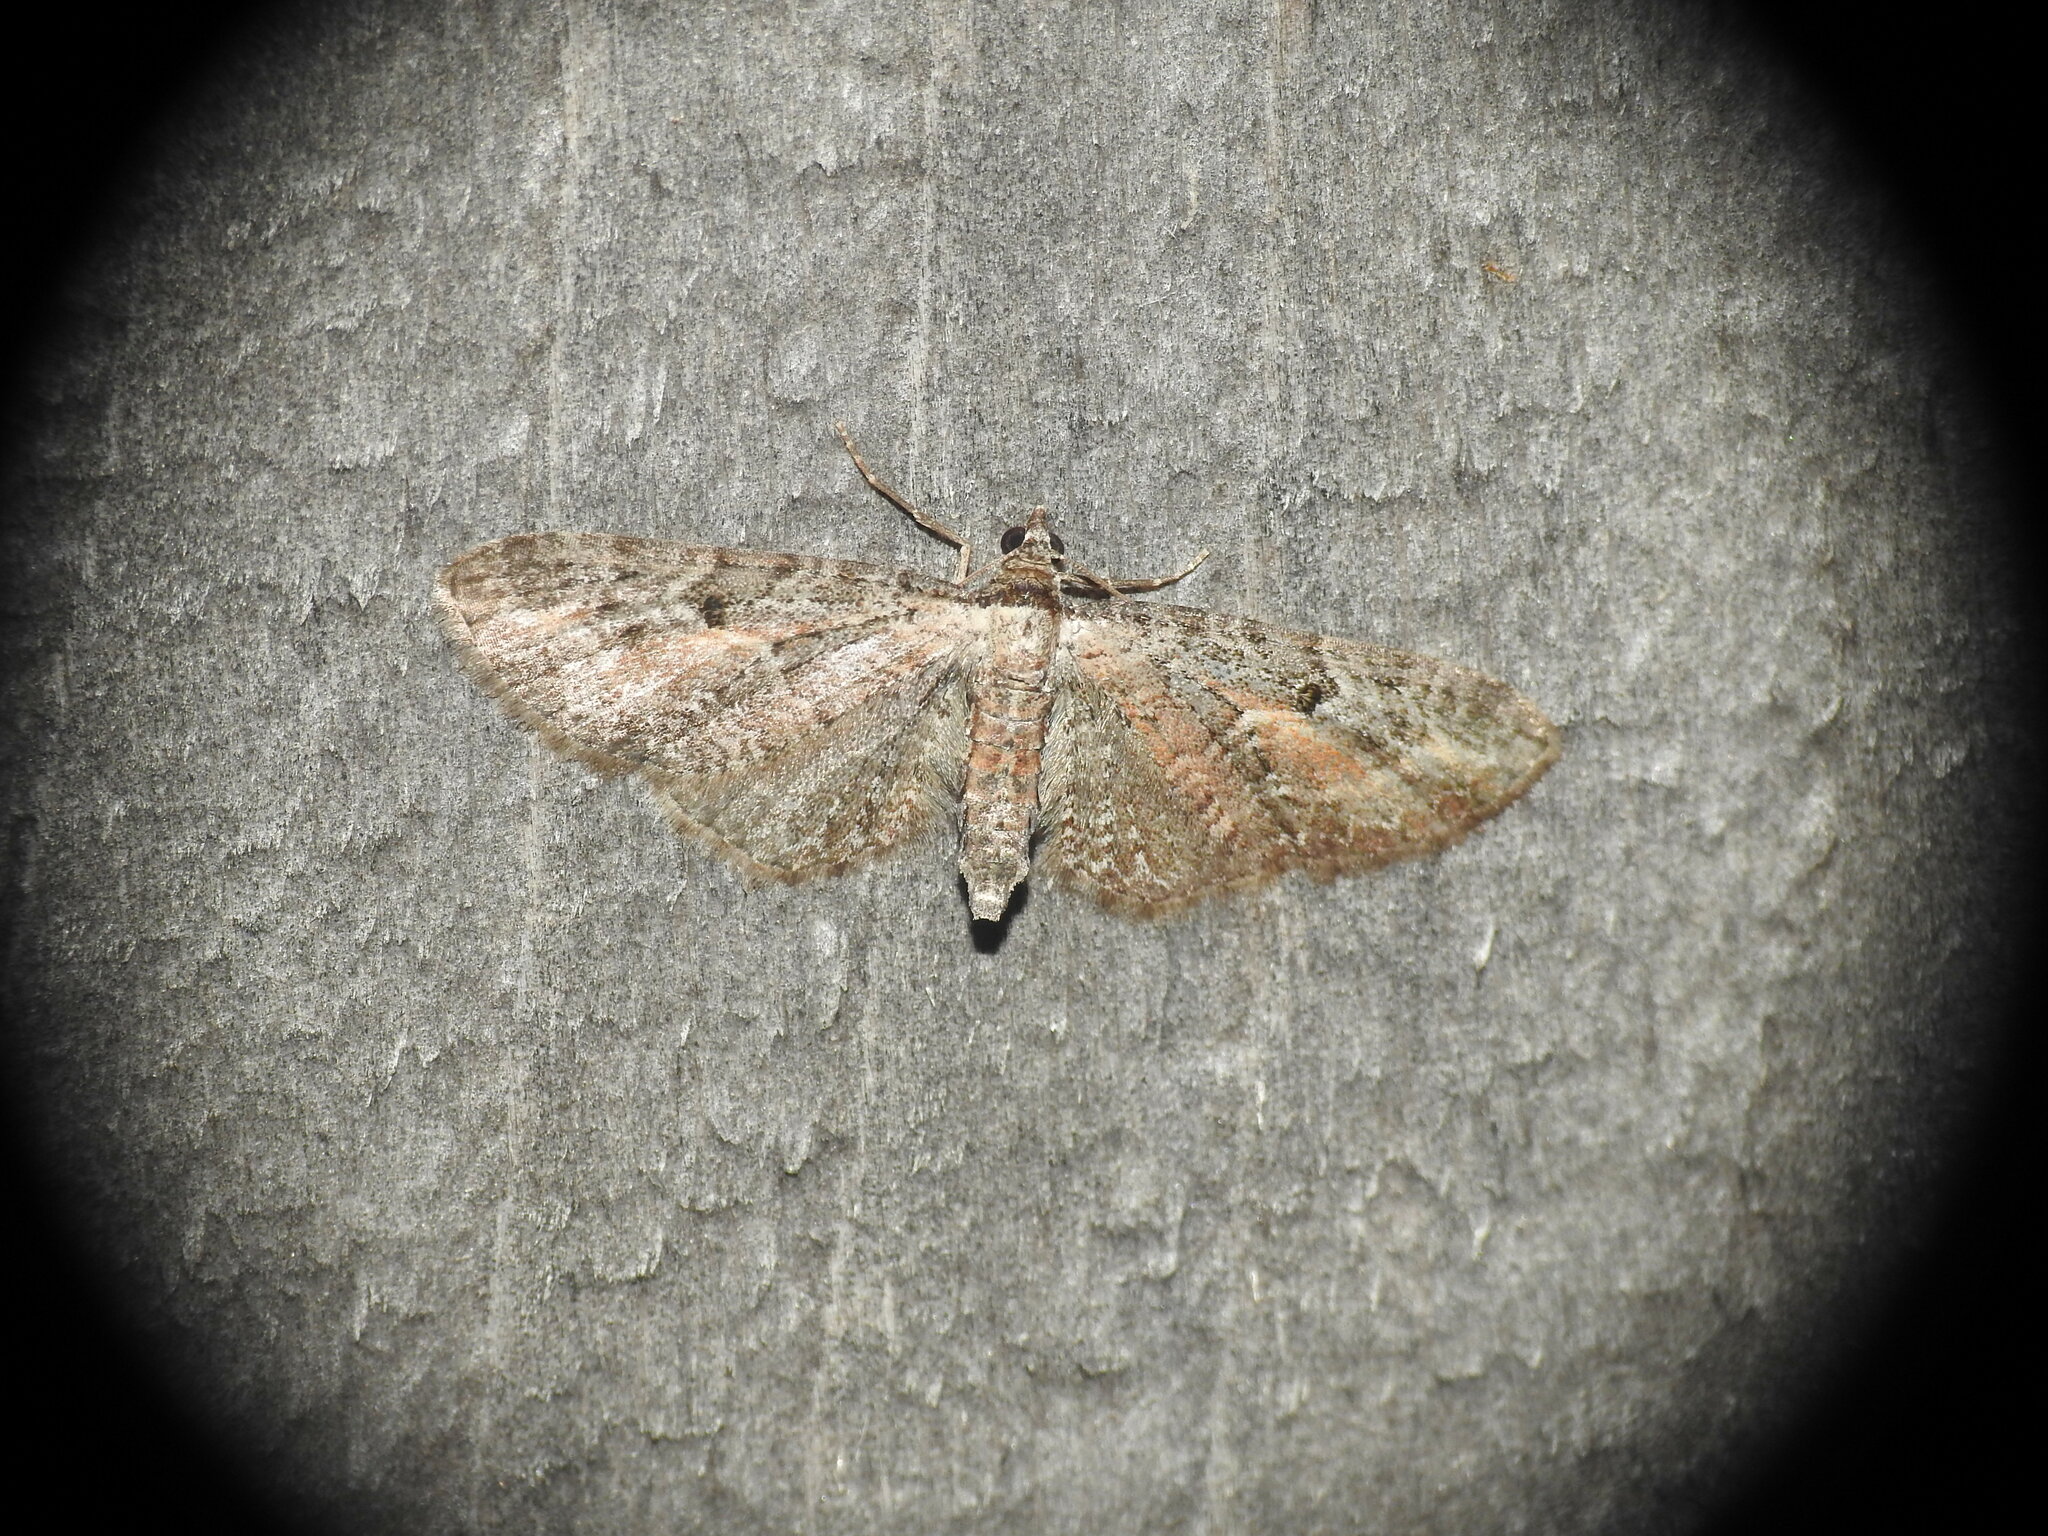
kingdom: Animalia
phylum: Arthropoda
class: Insecta
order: Lepidoptera
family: Geometridae
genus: Eupithecia
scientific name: Eupithecia icterata
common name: Tawny speckled pug
